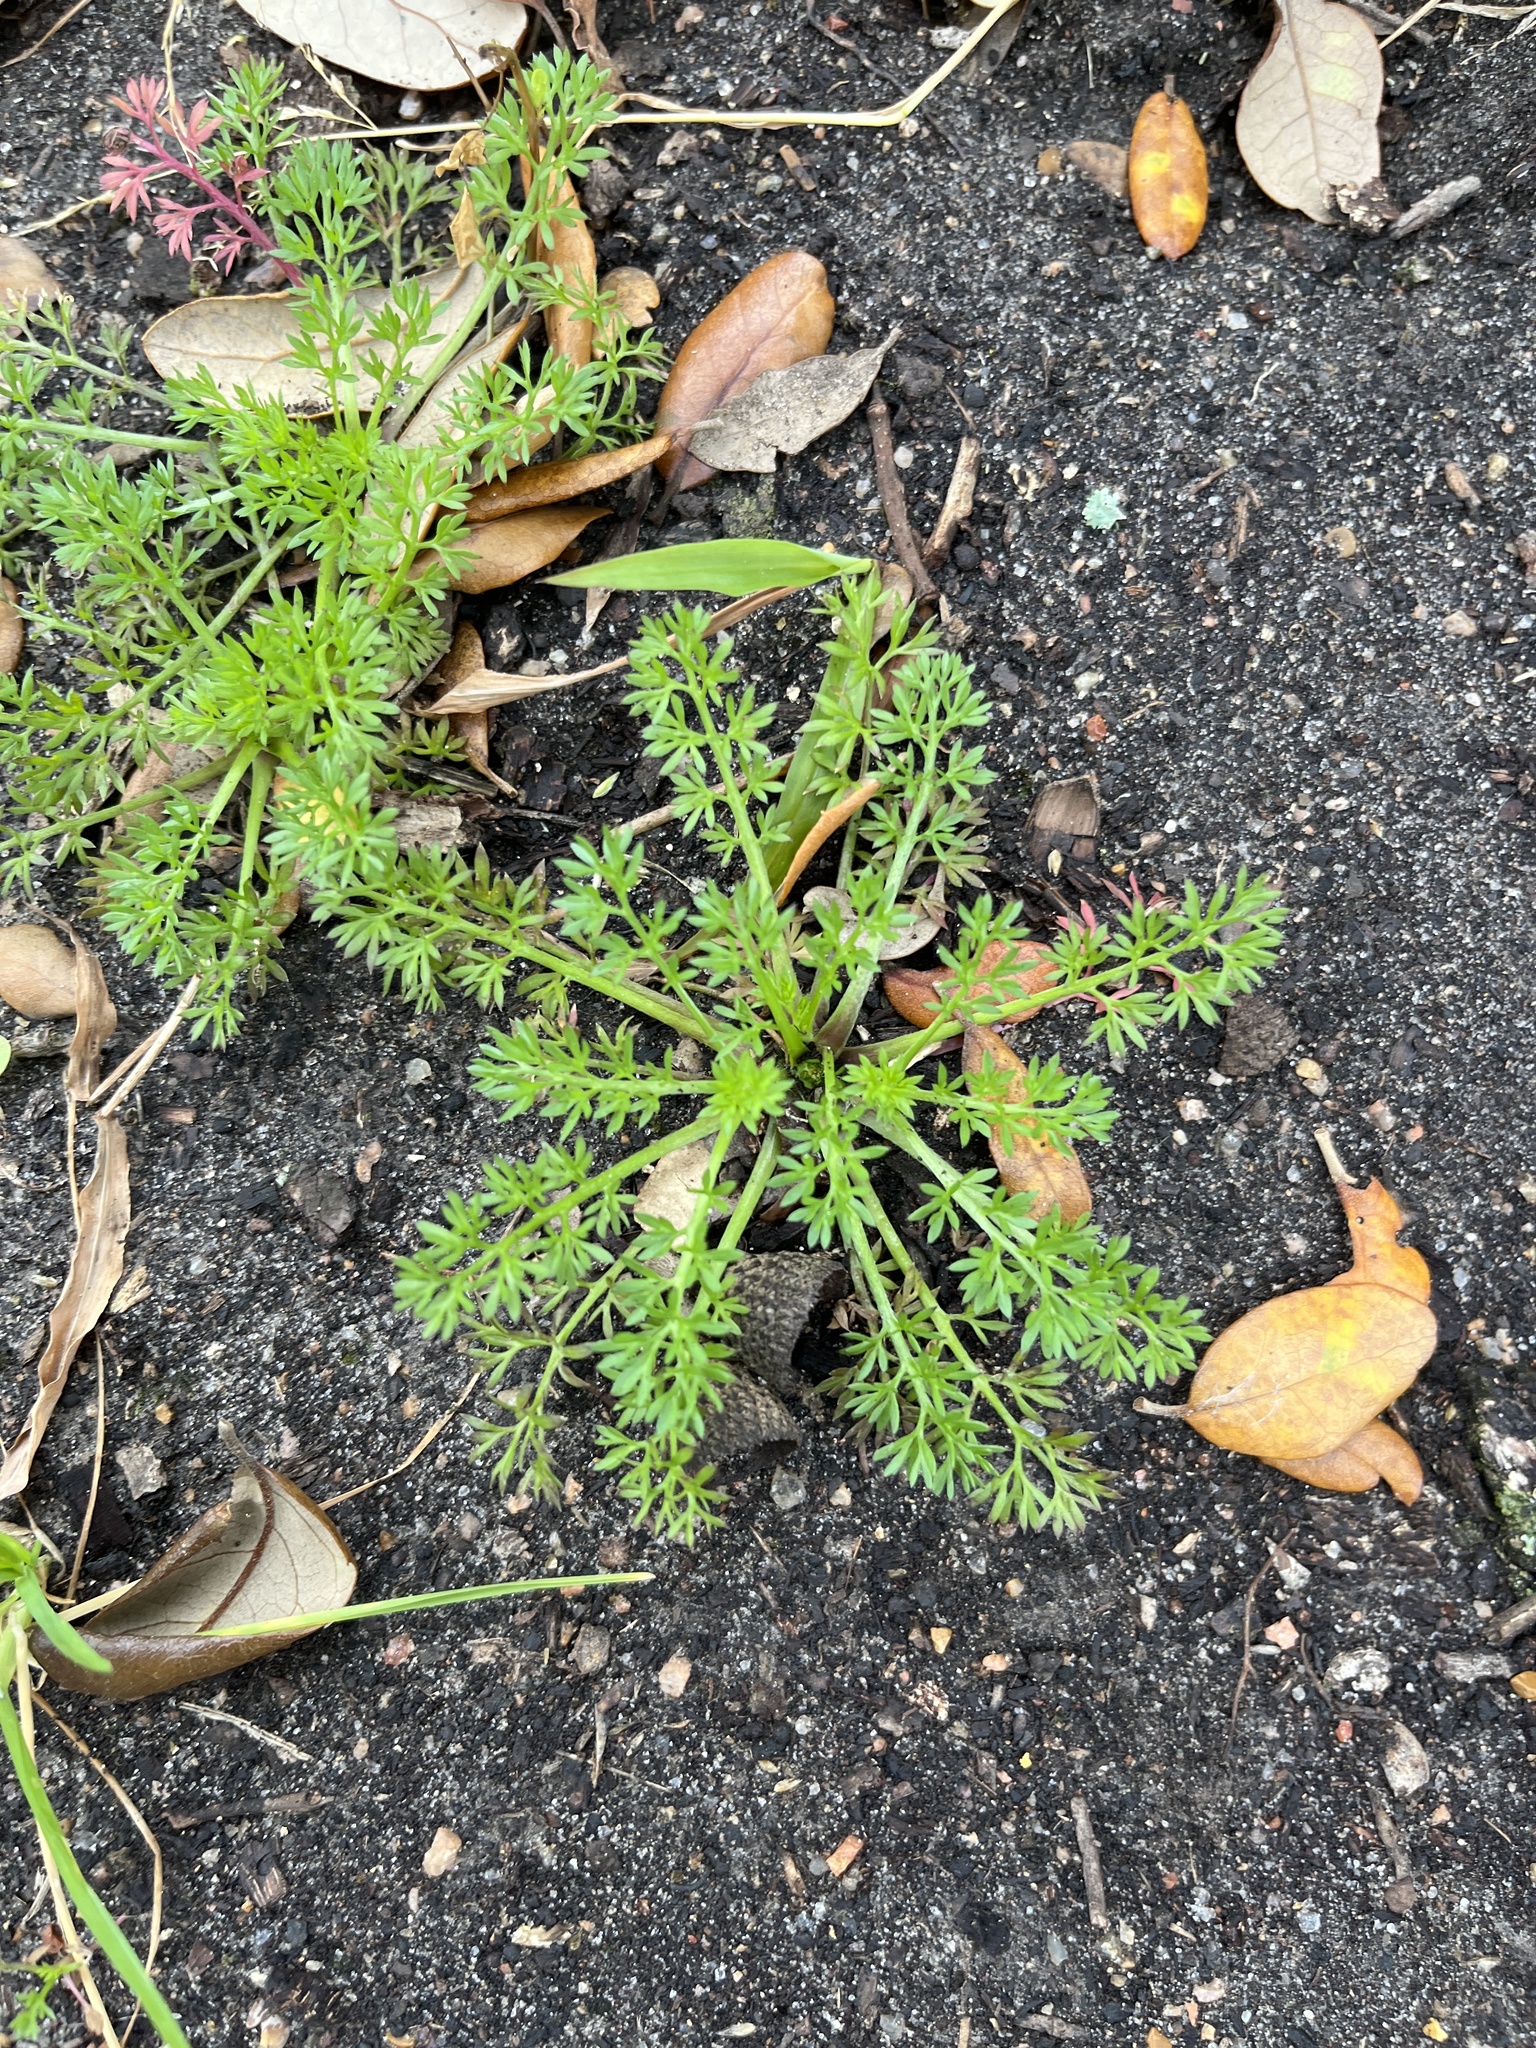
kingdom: Plantae
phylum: Tracheophyta
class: Magnoliopsida
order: Asterales
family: Asteraceae
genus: Soliva
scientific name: Soliva sessilis
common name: Field burrweed
